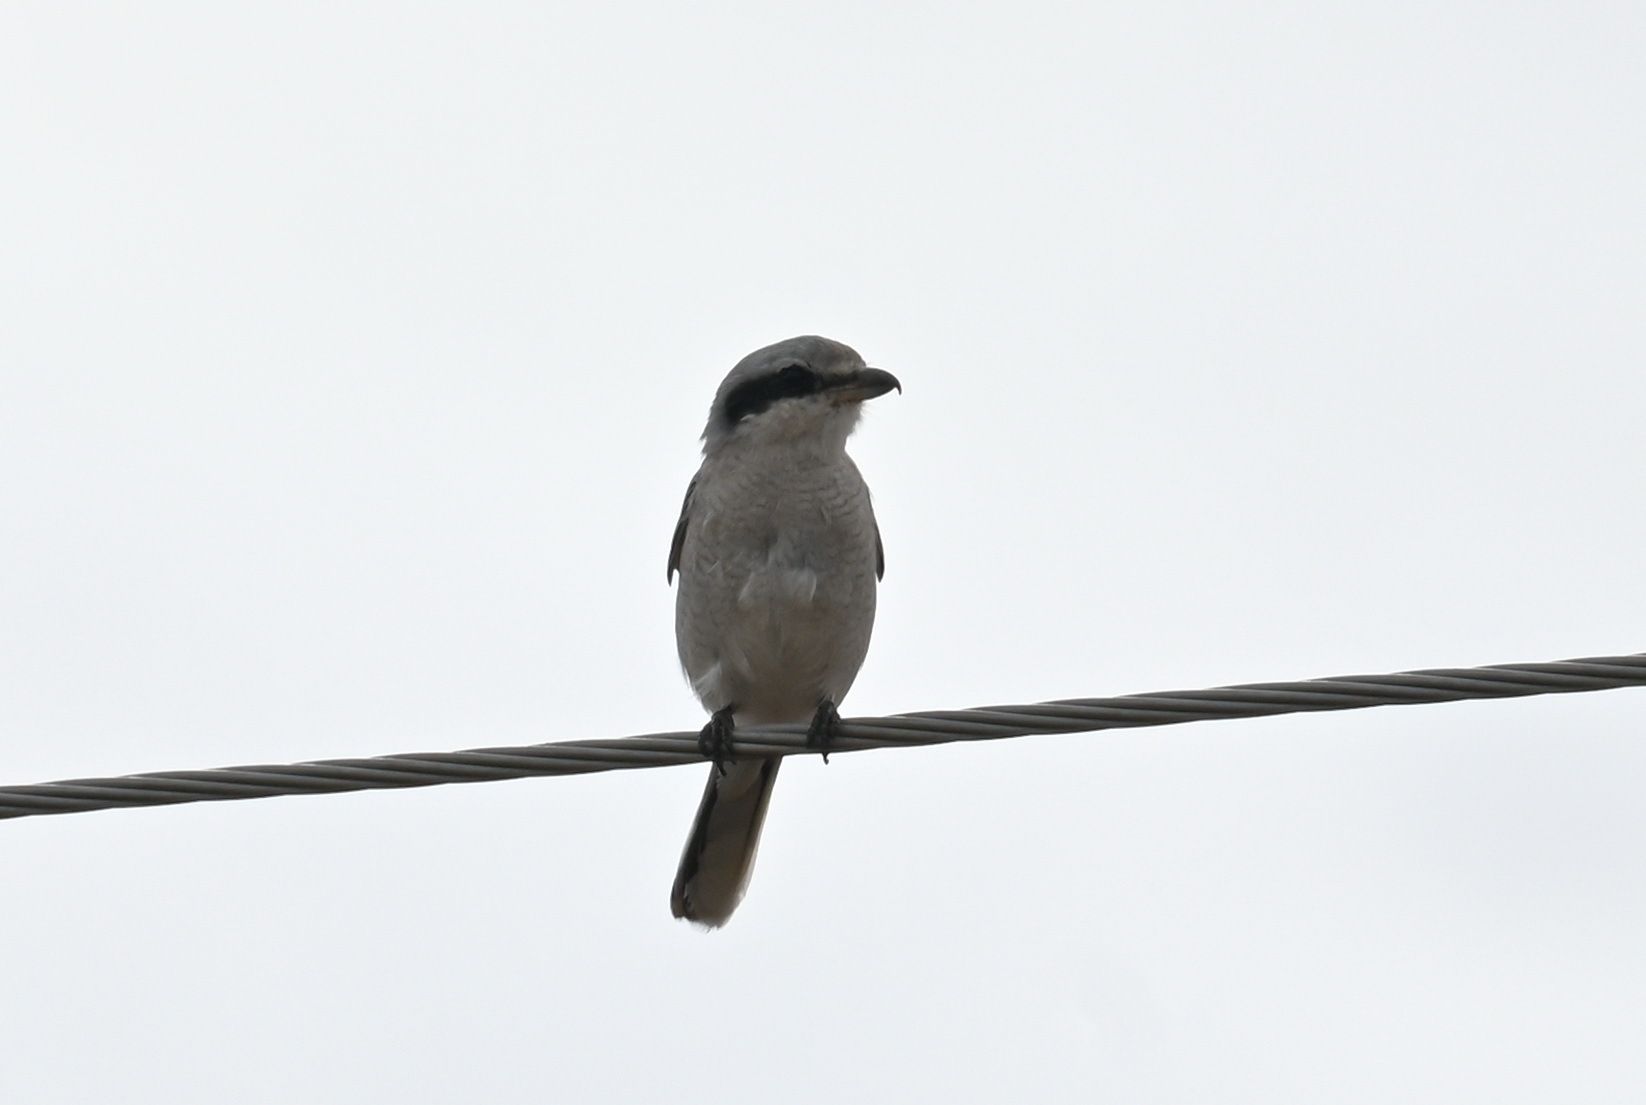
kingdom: Animalia
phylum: Chordata
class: Aves
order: Passeriformes
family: Laniidae
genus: Lanius
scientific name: Lanius excubitor
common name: Great grey shrike
